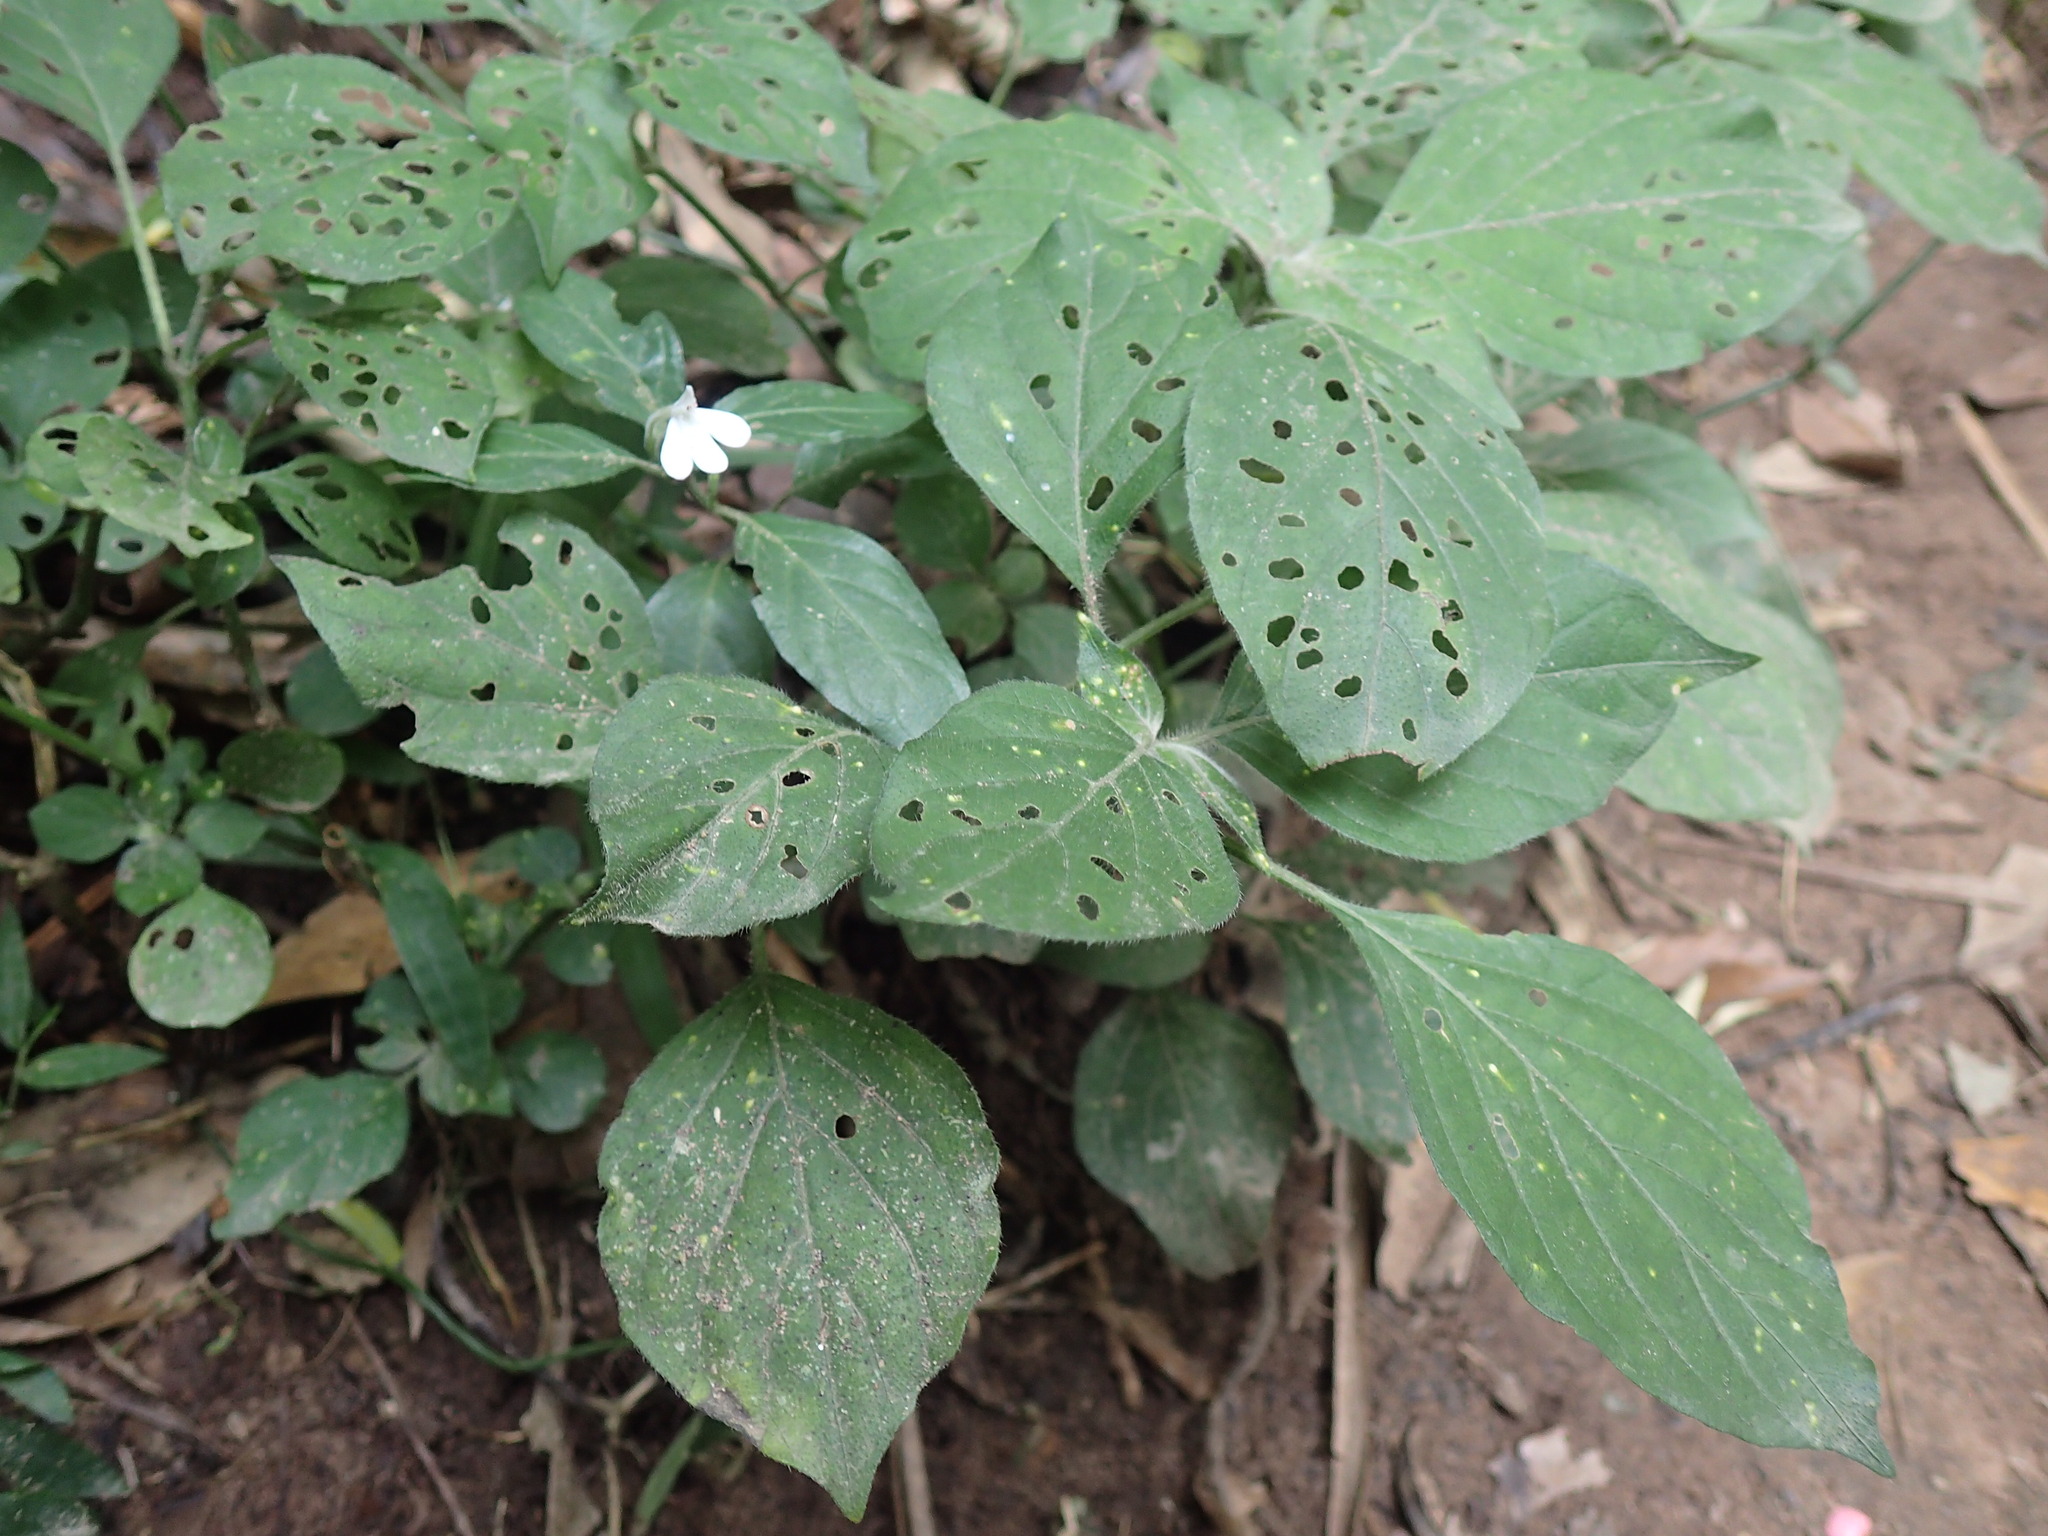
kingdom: Plantae
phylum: Tracheophyta
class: Magnoliopsida
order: Lamiales
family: Acanthaceae
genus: Rhinacanthus
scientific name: Rhinacanthus latilabiatus
